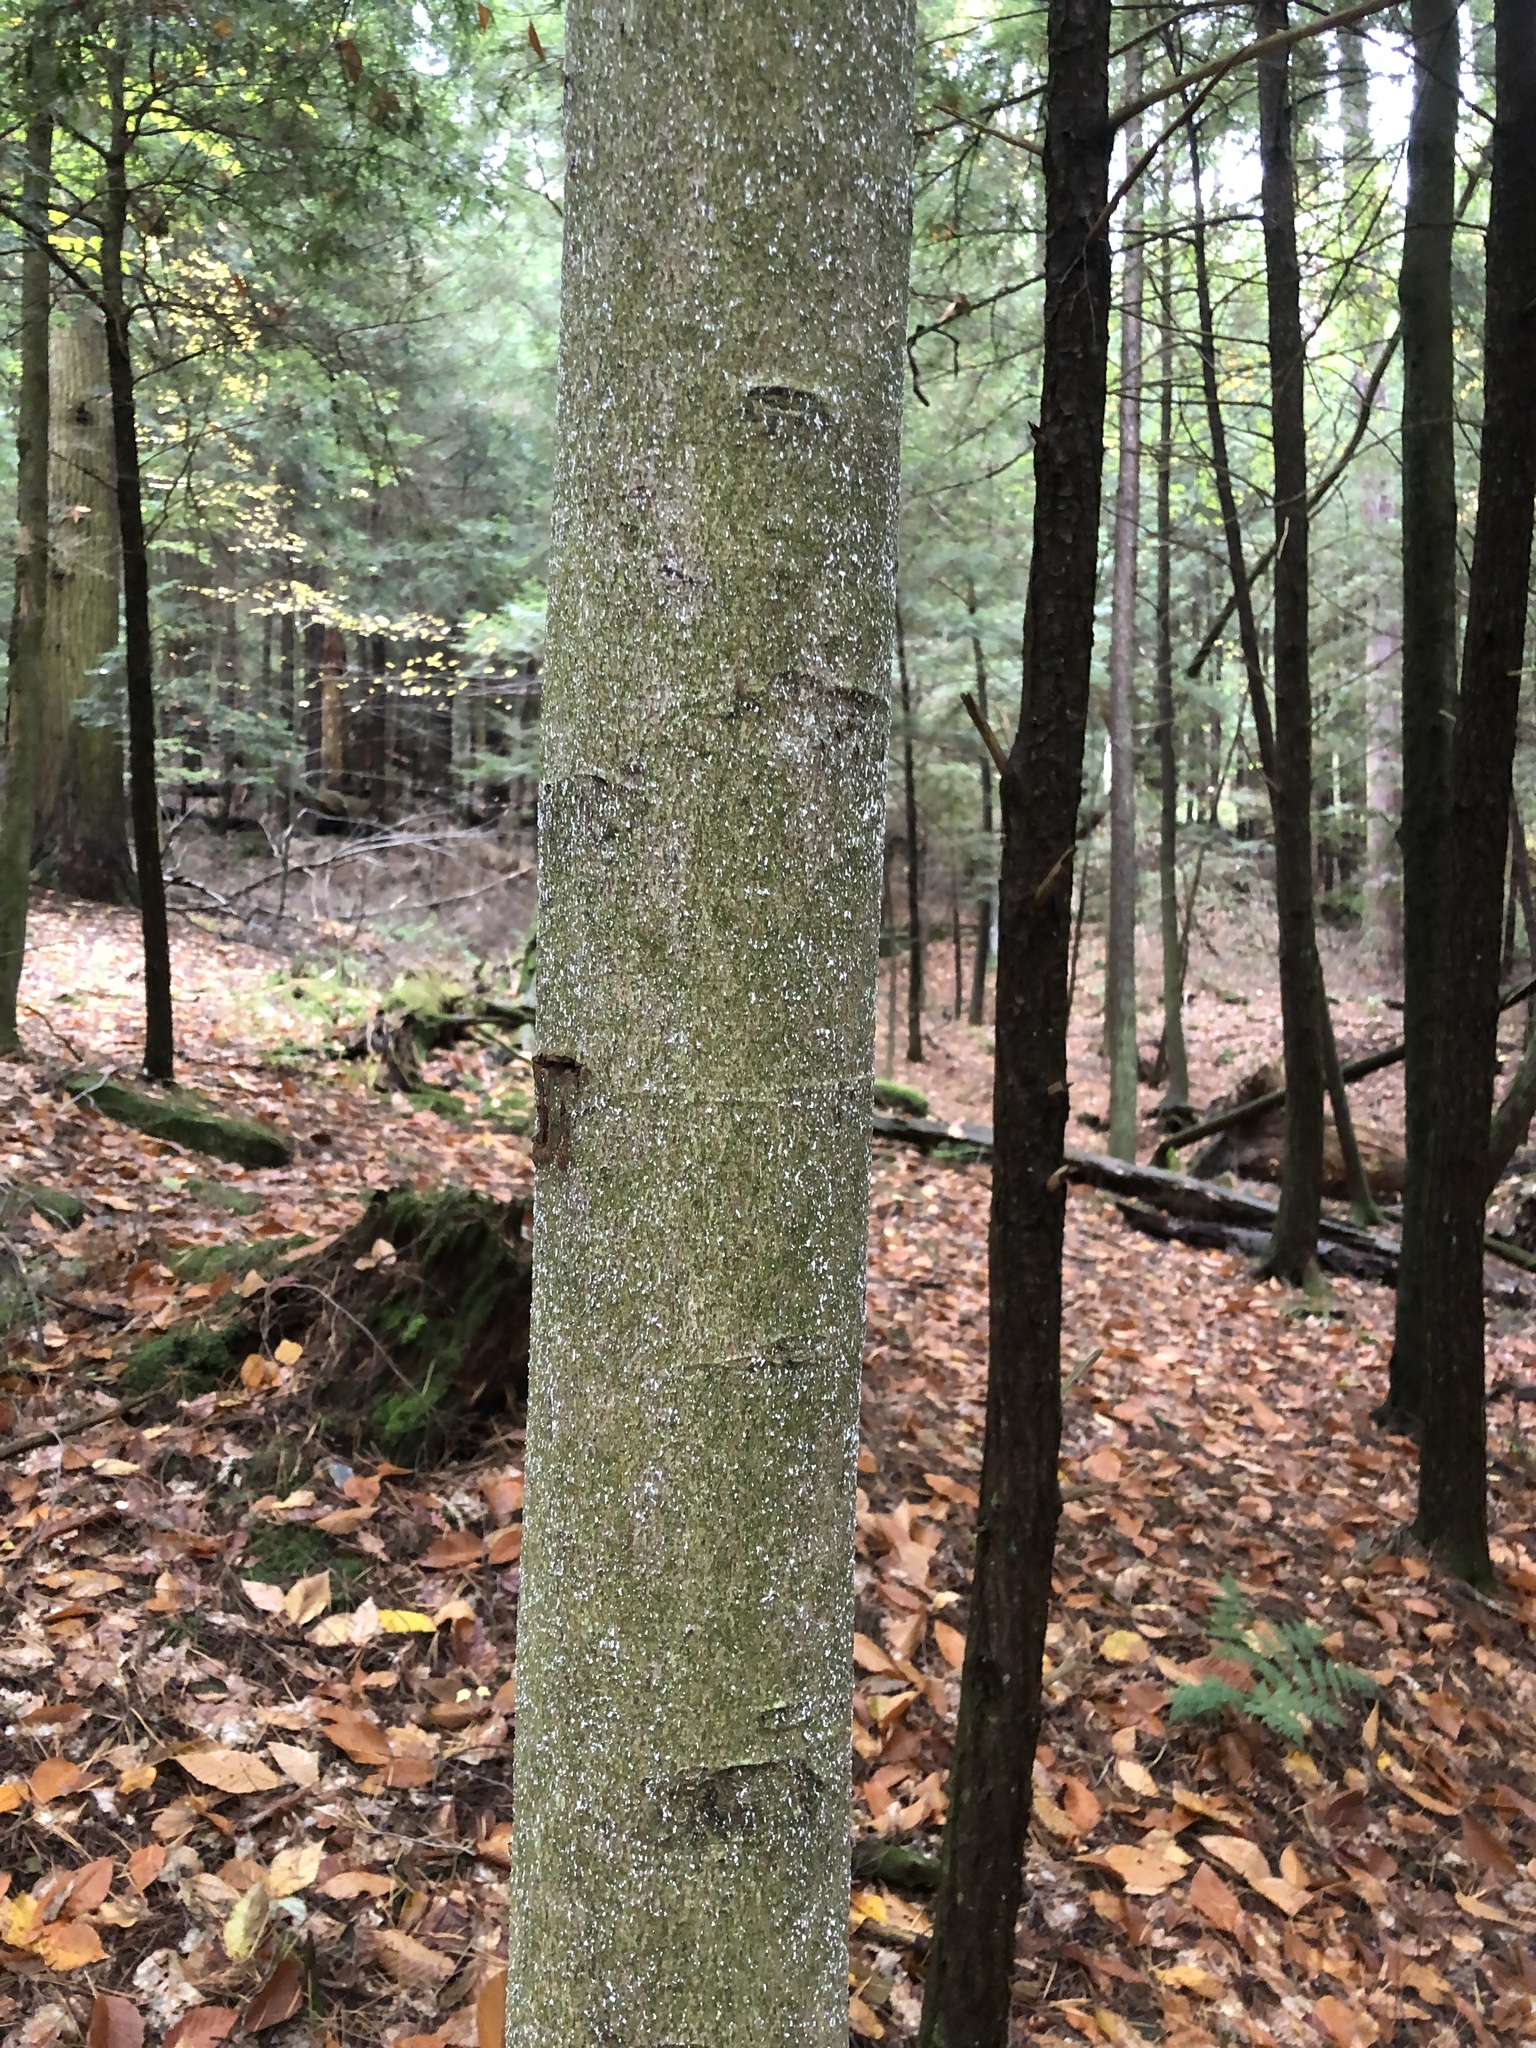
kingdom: Animalia
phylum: Arthropoda
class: Insecta
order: Hemiptera
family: Eriococcidae
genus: Cryptococcus
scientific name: Cryptococcus fagisuga
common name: Beech scale
